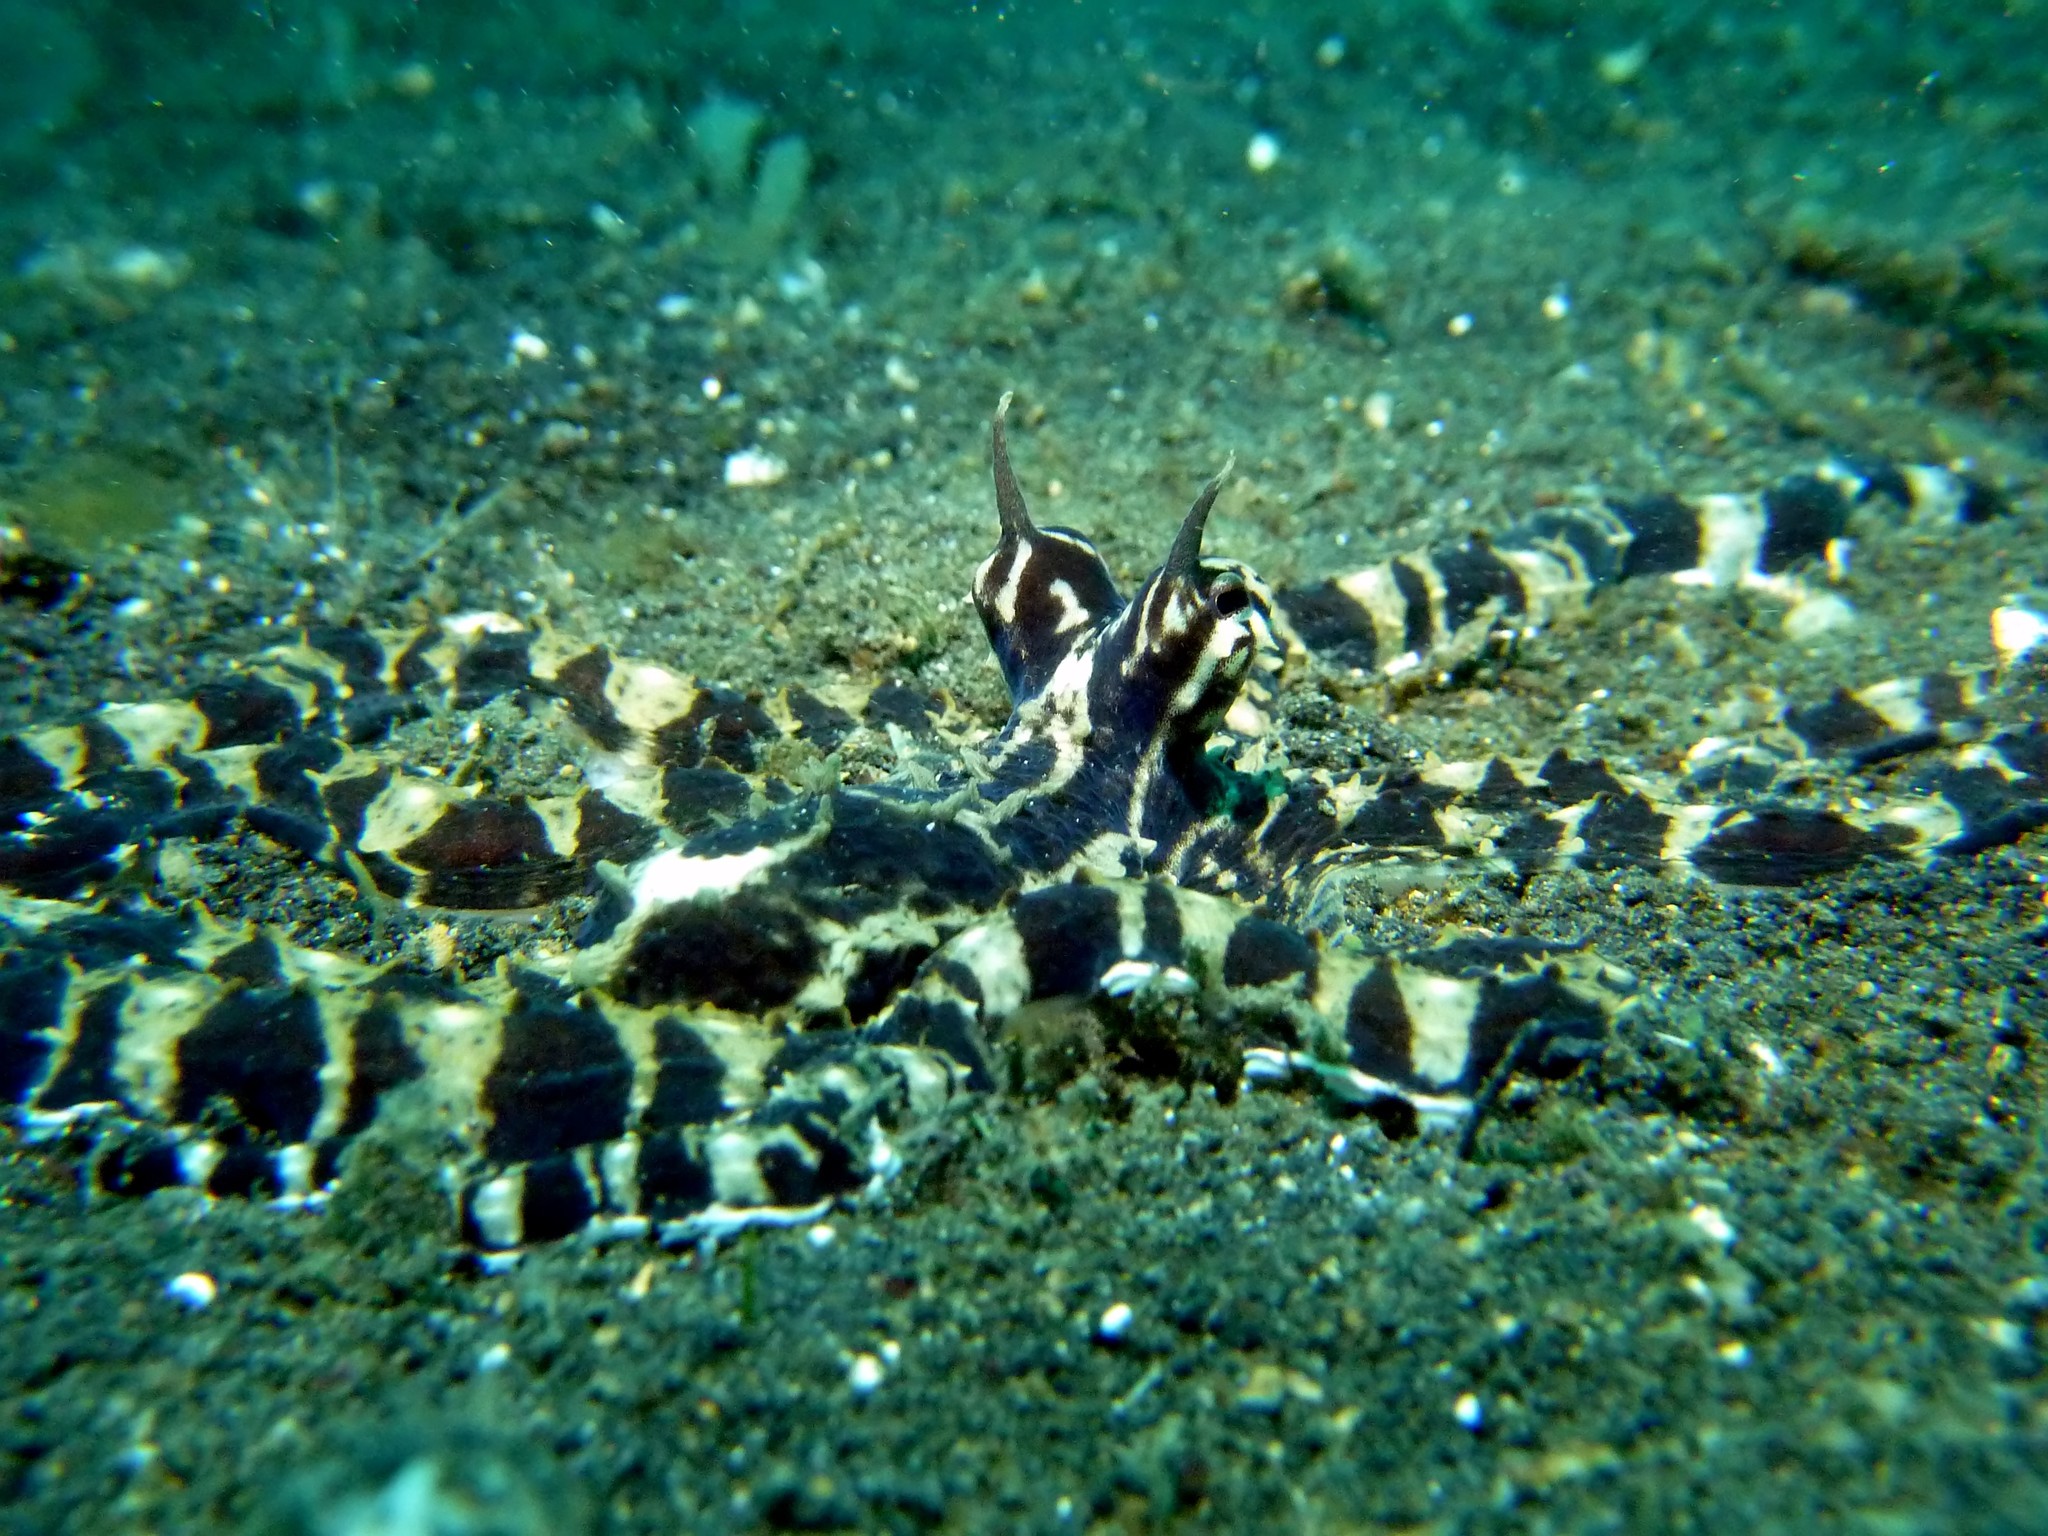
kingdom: Animalia
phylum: Mollusca
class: Cephalopoda
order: Octopoda
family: Octopodidae
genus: Thaumoctopus
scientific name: Thaumoctopus mimicus
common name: Mimic octopus
